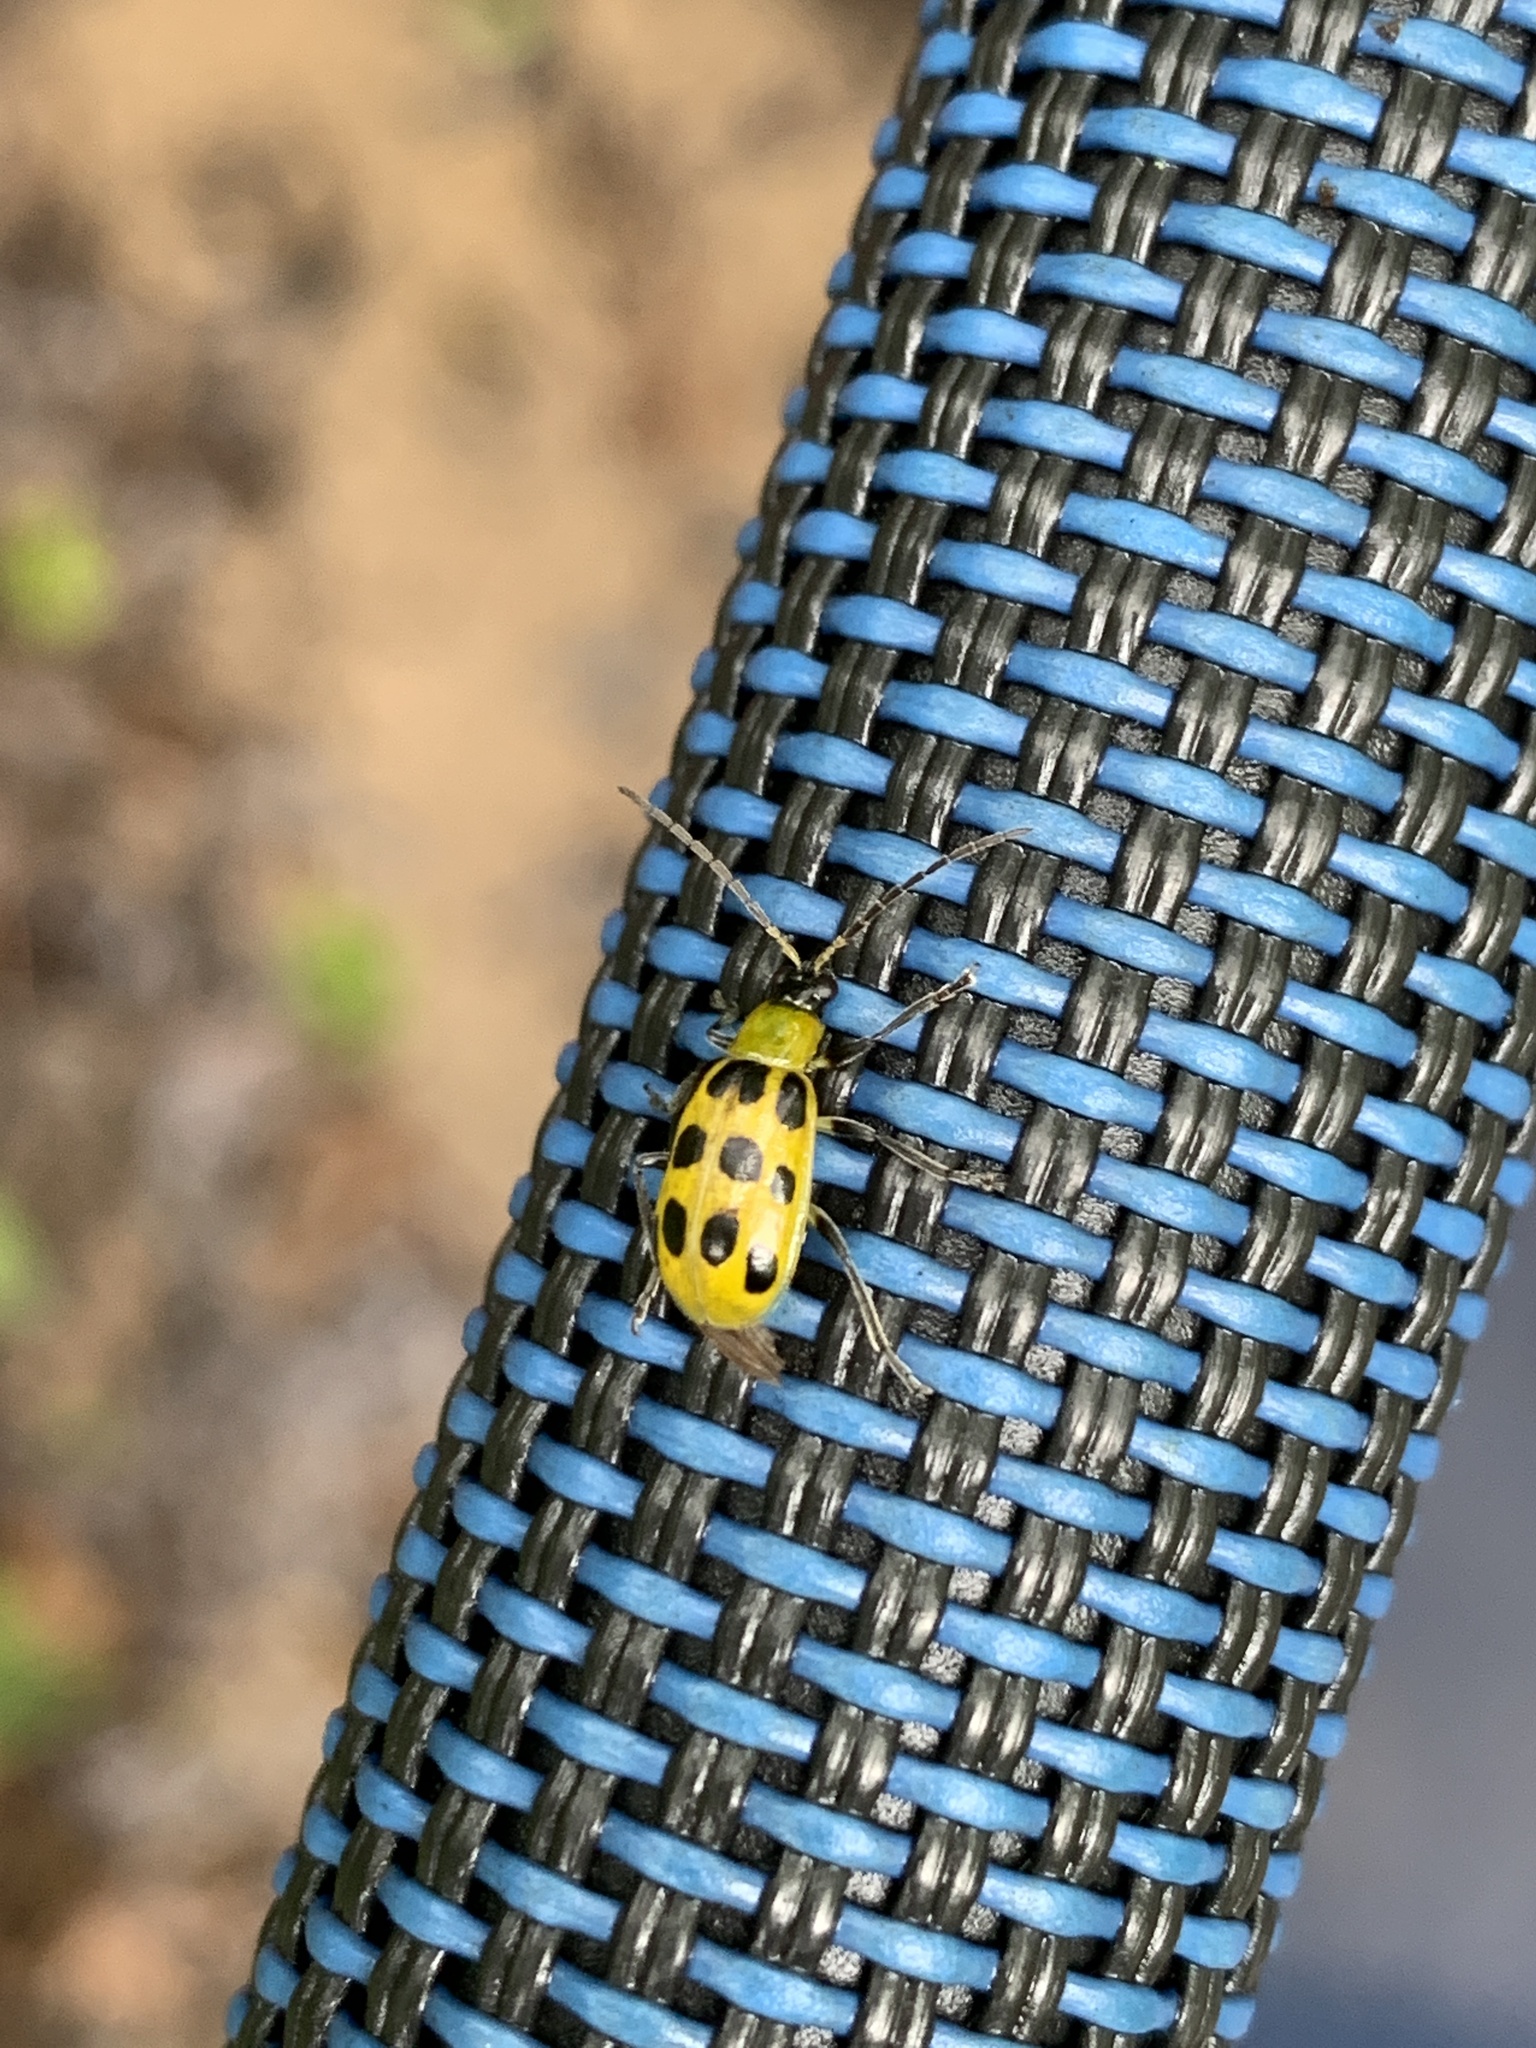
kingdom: Animalia
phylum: Arthropoda
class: Insecta
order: Coleoptera
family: Chrysomelidae
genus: Diabrotica
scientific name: Diabrotica undecimpunctata
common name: Spotted cucumber beetle
